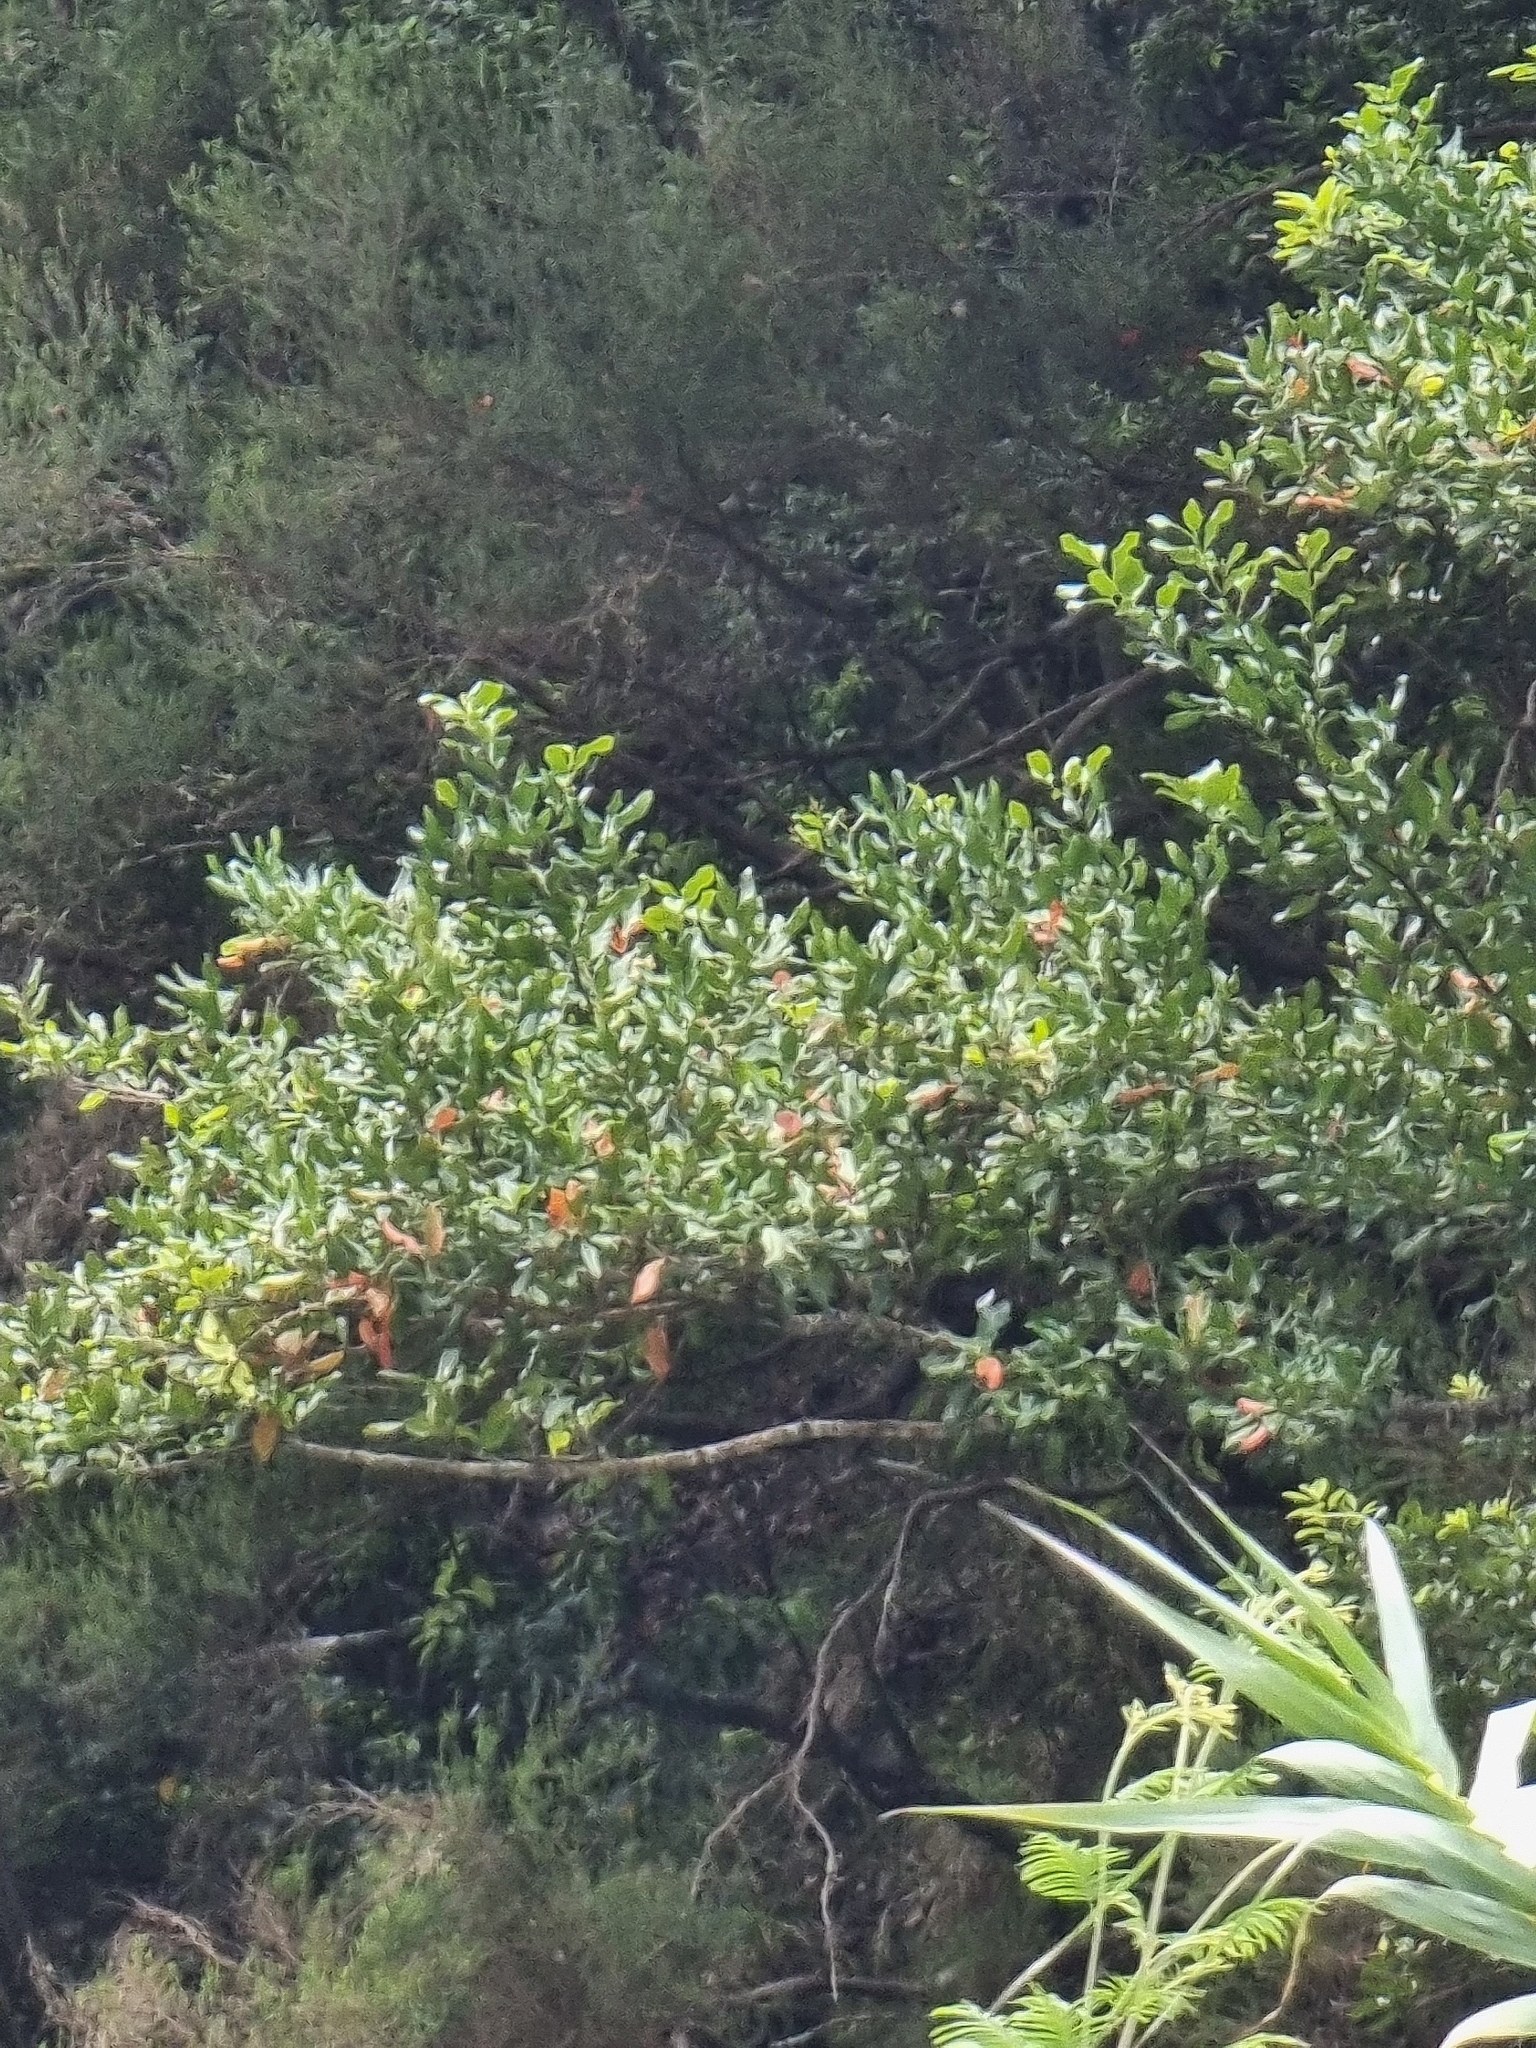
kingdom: Plantae
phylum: Tracheophyta
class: Magnoliopsida
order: Laurales
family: Lauraceae
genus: Mespilodaphne
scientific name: Mespilodaphne foetens
